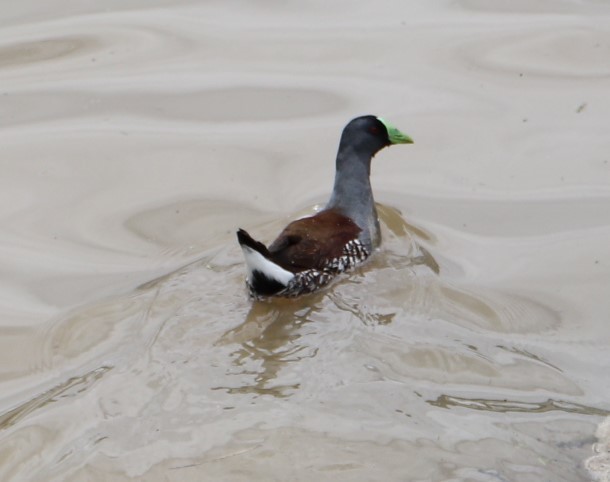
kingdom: Animalia
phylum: Chordata
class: Aves
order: Gruiformes
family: Rallidae
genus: Gallinula
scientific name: Gallinula melanops
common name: Spot-flanked gallinule
